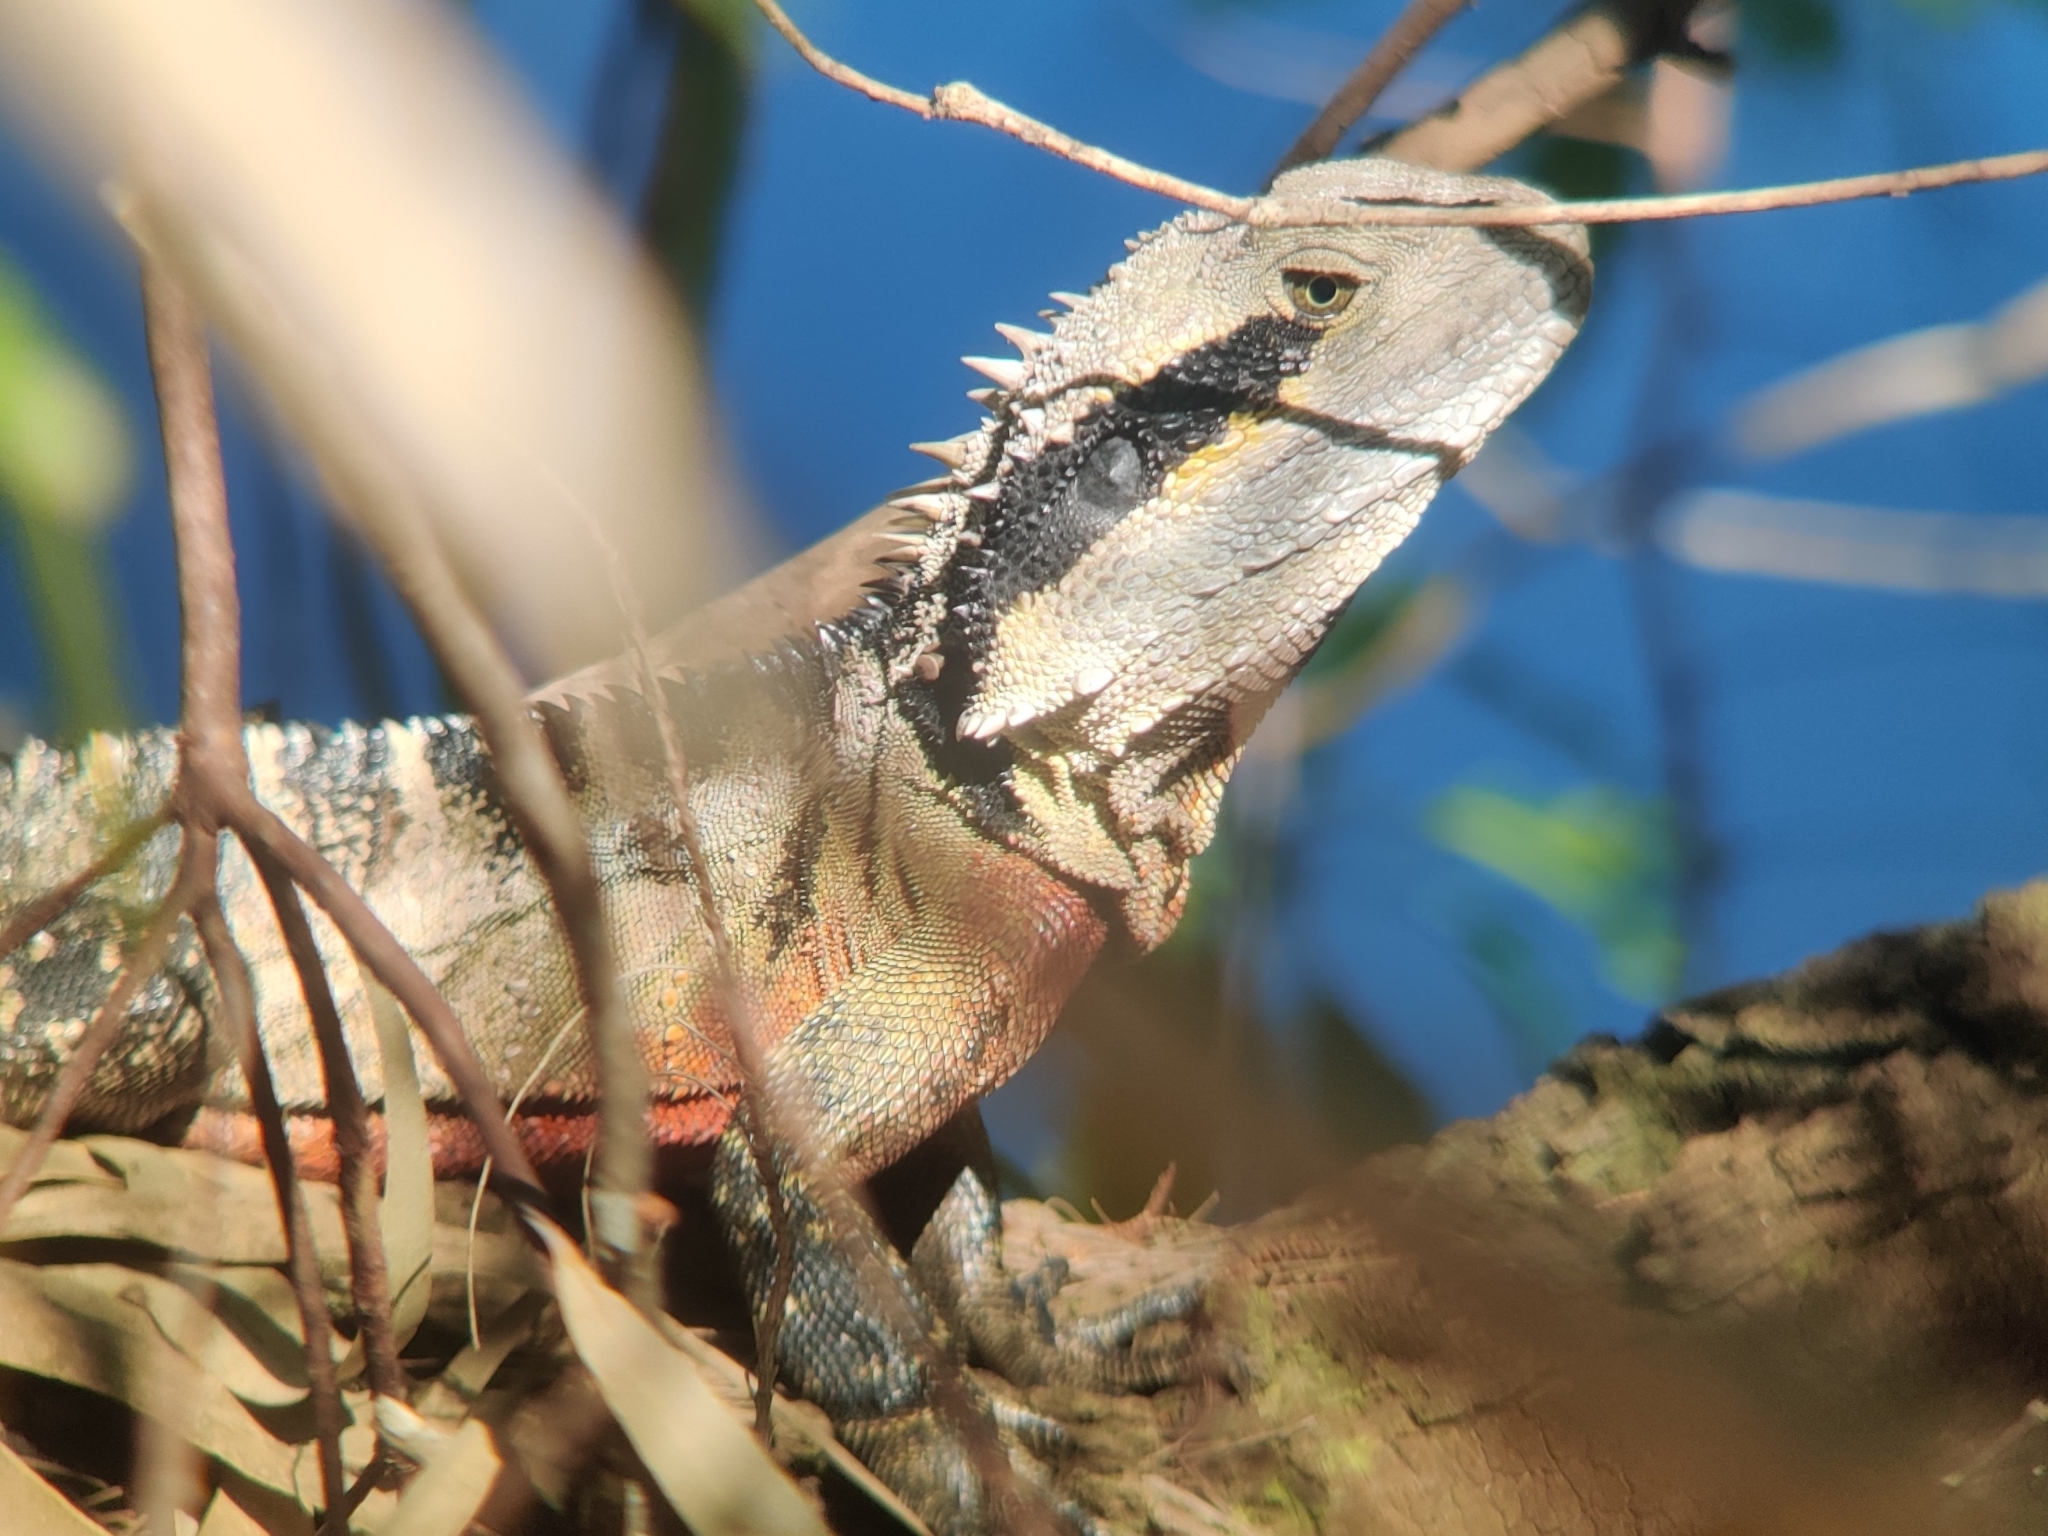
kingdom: Animalia
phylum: Chordata
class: Squamata
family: Agamidae
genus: Intellagama
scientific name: Intellagama lesueurii
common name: Eastern water dragon
